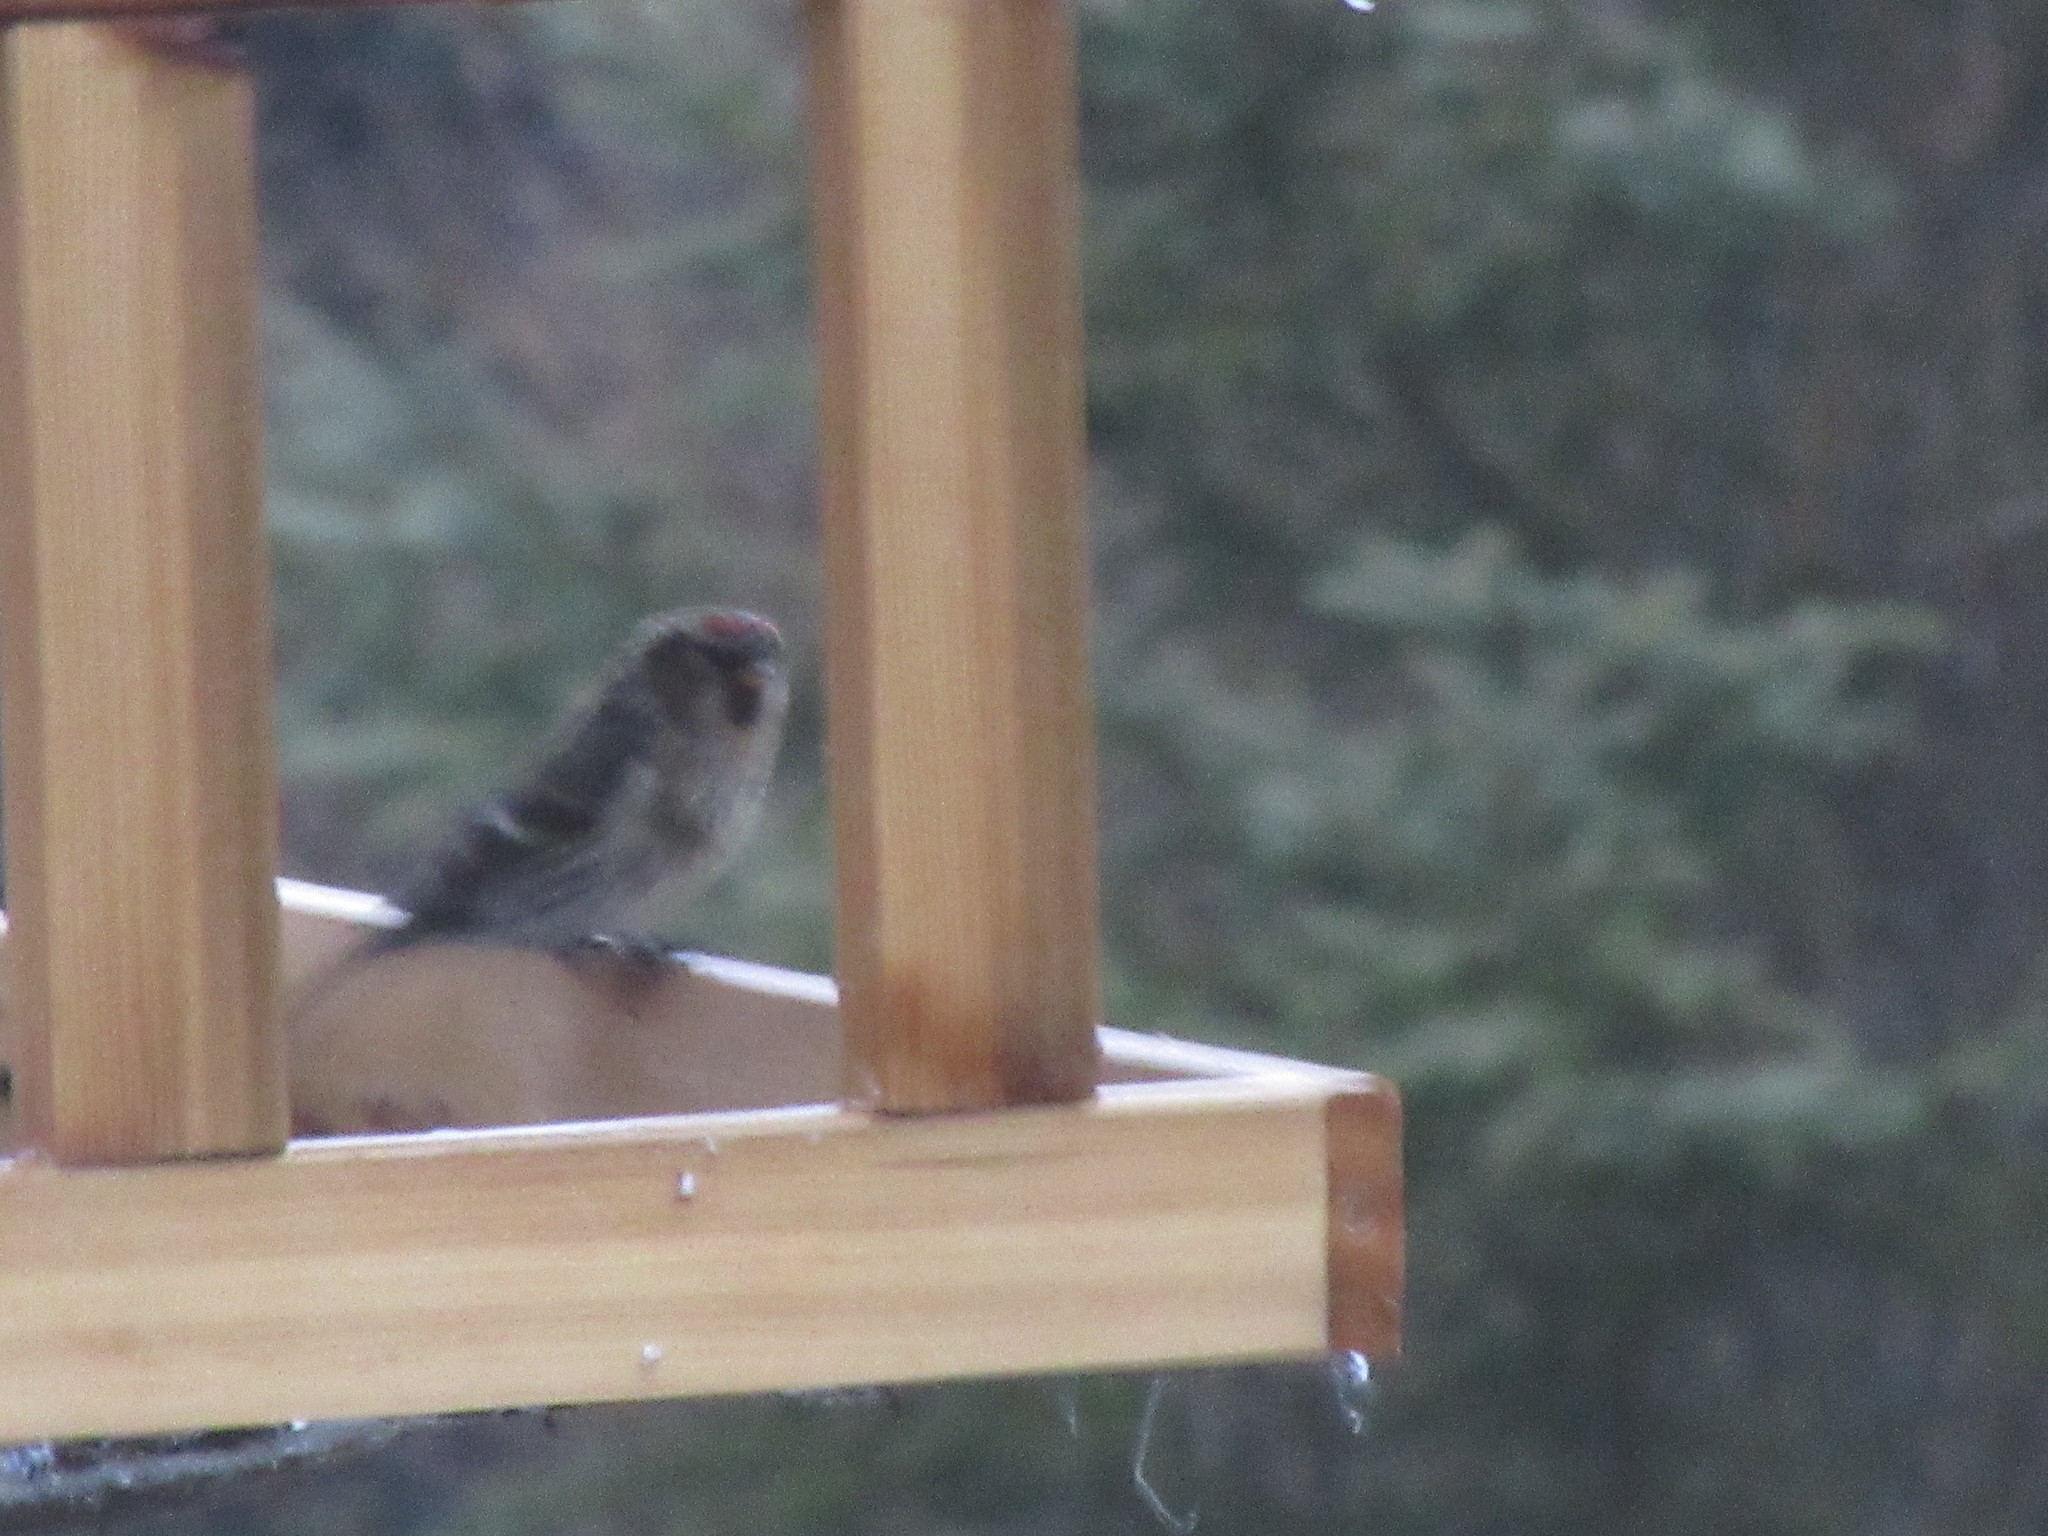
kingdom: Animalia
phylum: Chordata
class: Aves
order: Passeriformes
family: Fringillidae
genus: Acanthis
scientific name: Acanthis flammea
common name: Common redpoll
